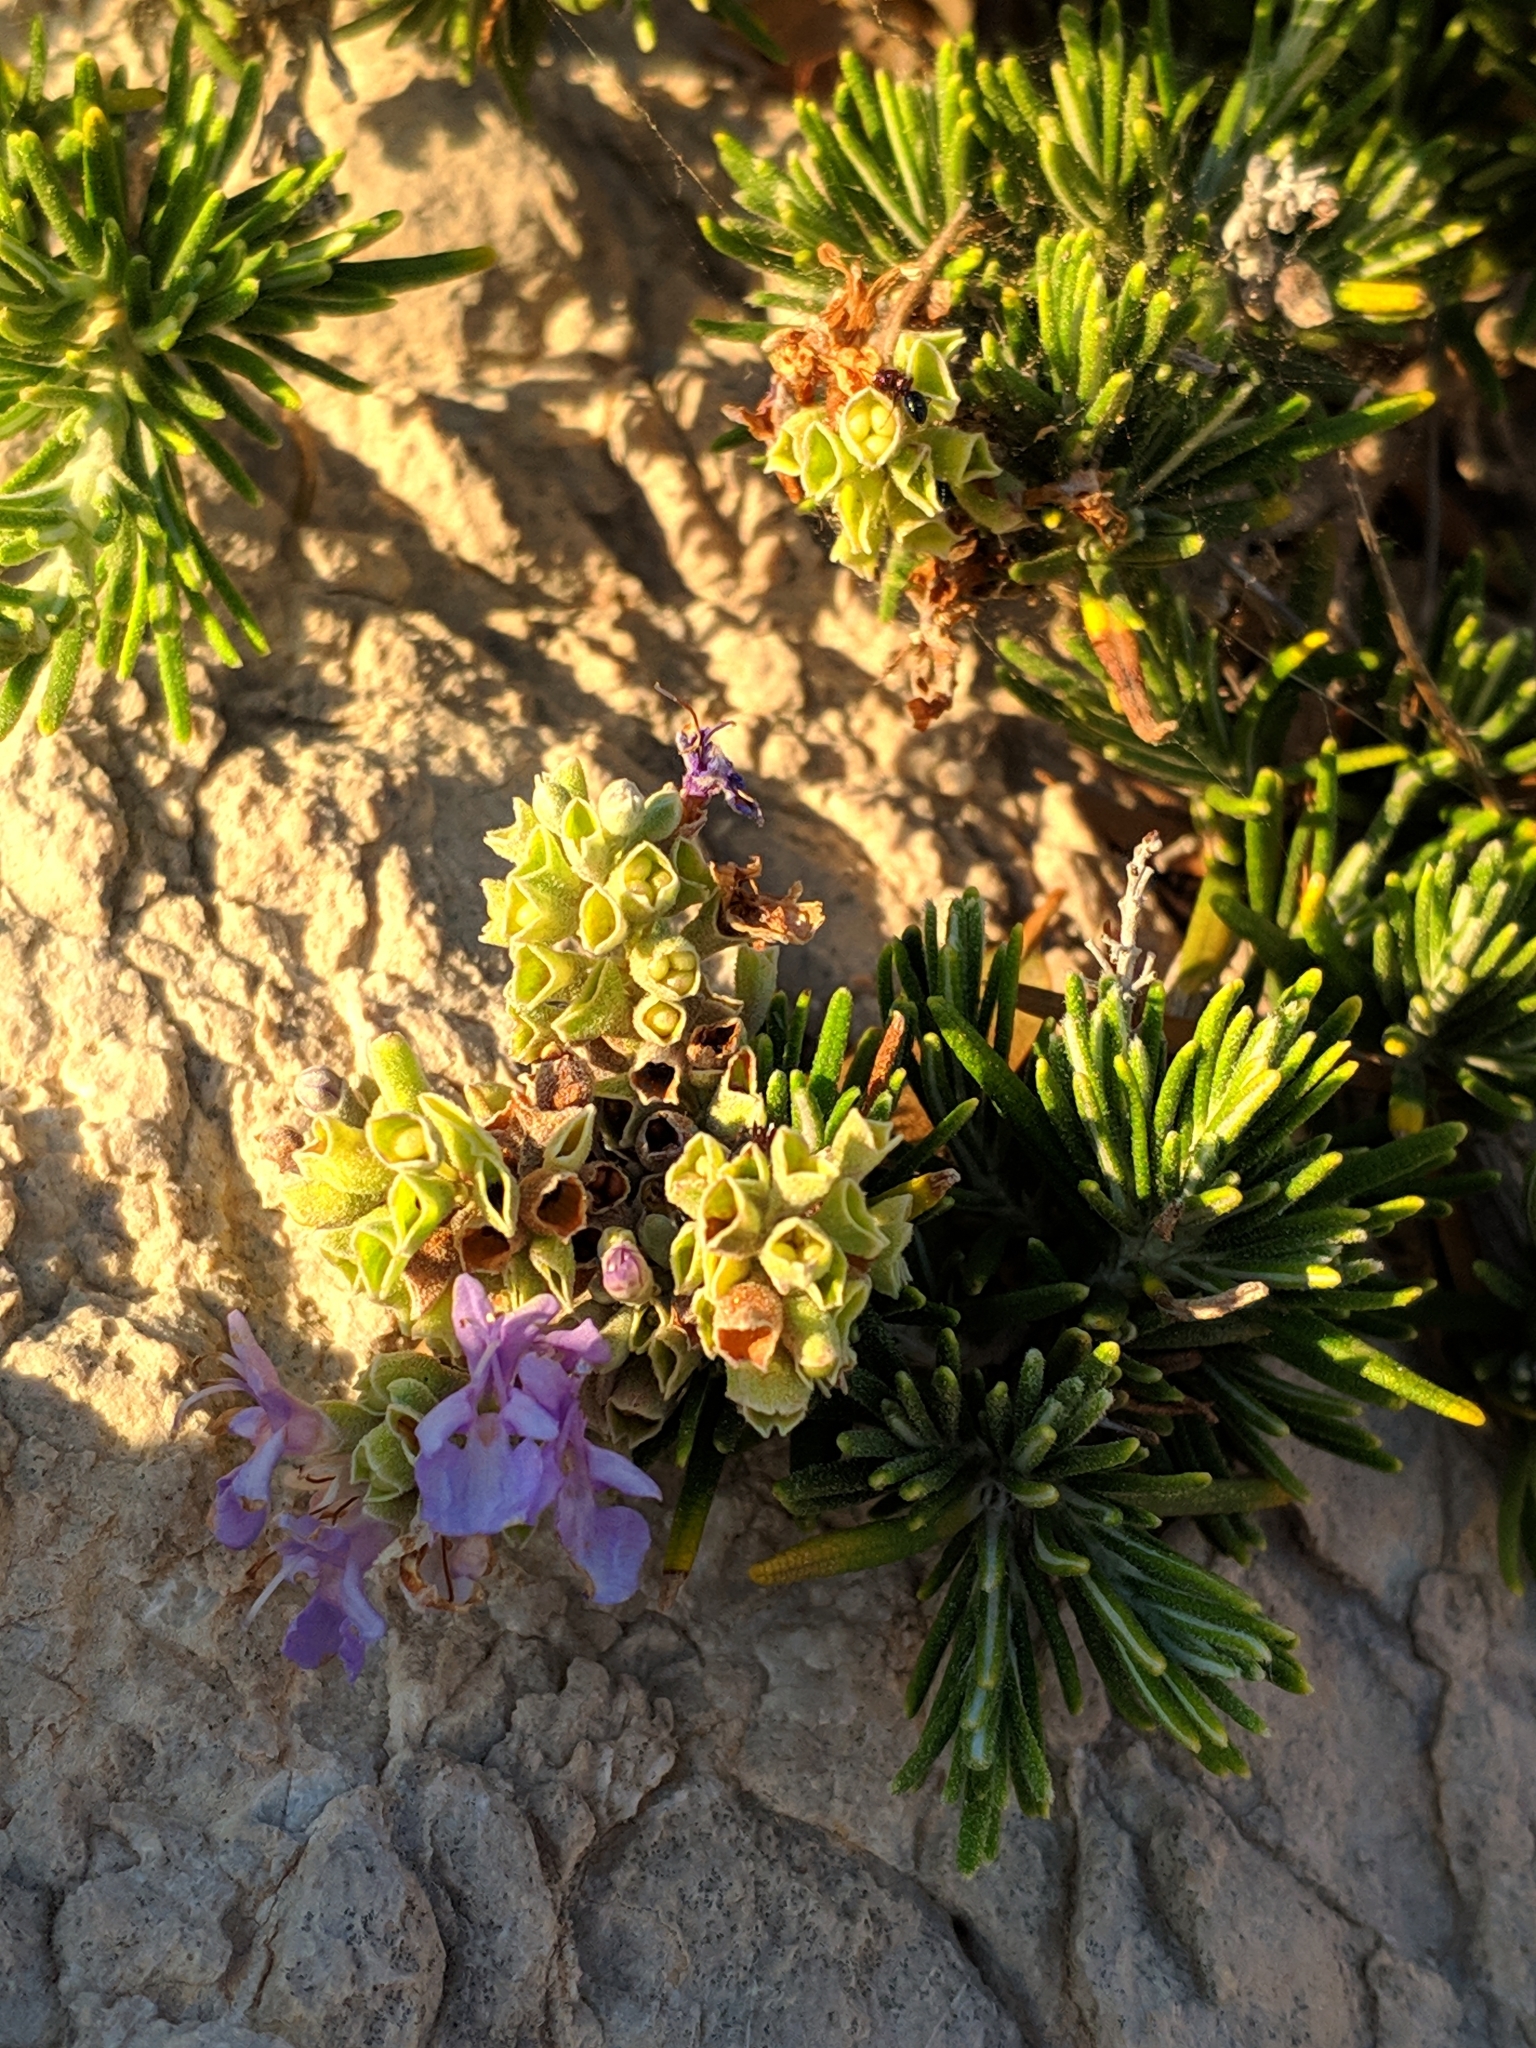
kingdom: Plantae
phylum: Tracheophyta
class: Magnoliopsida
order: Lamiales
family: Lamiaceae
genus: Salvia
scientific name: Salvia rosmarinus
